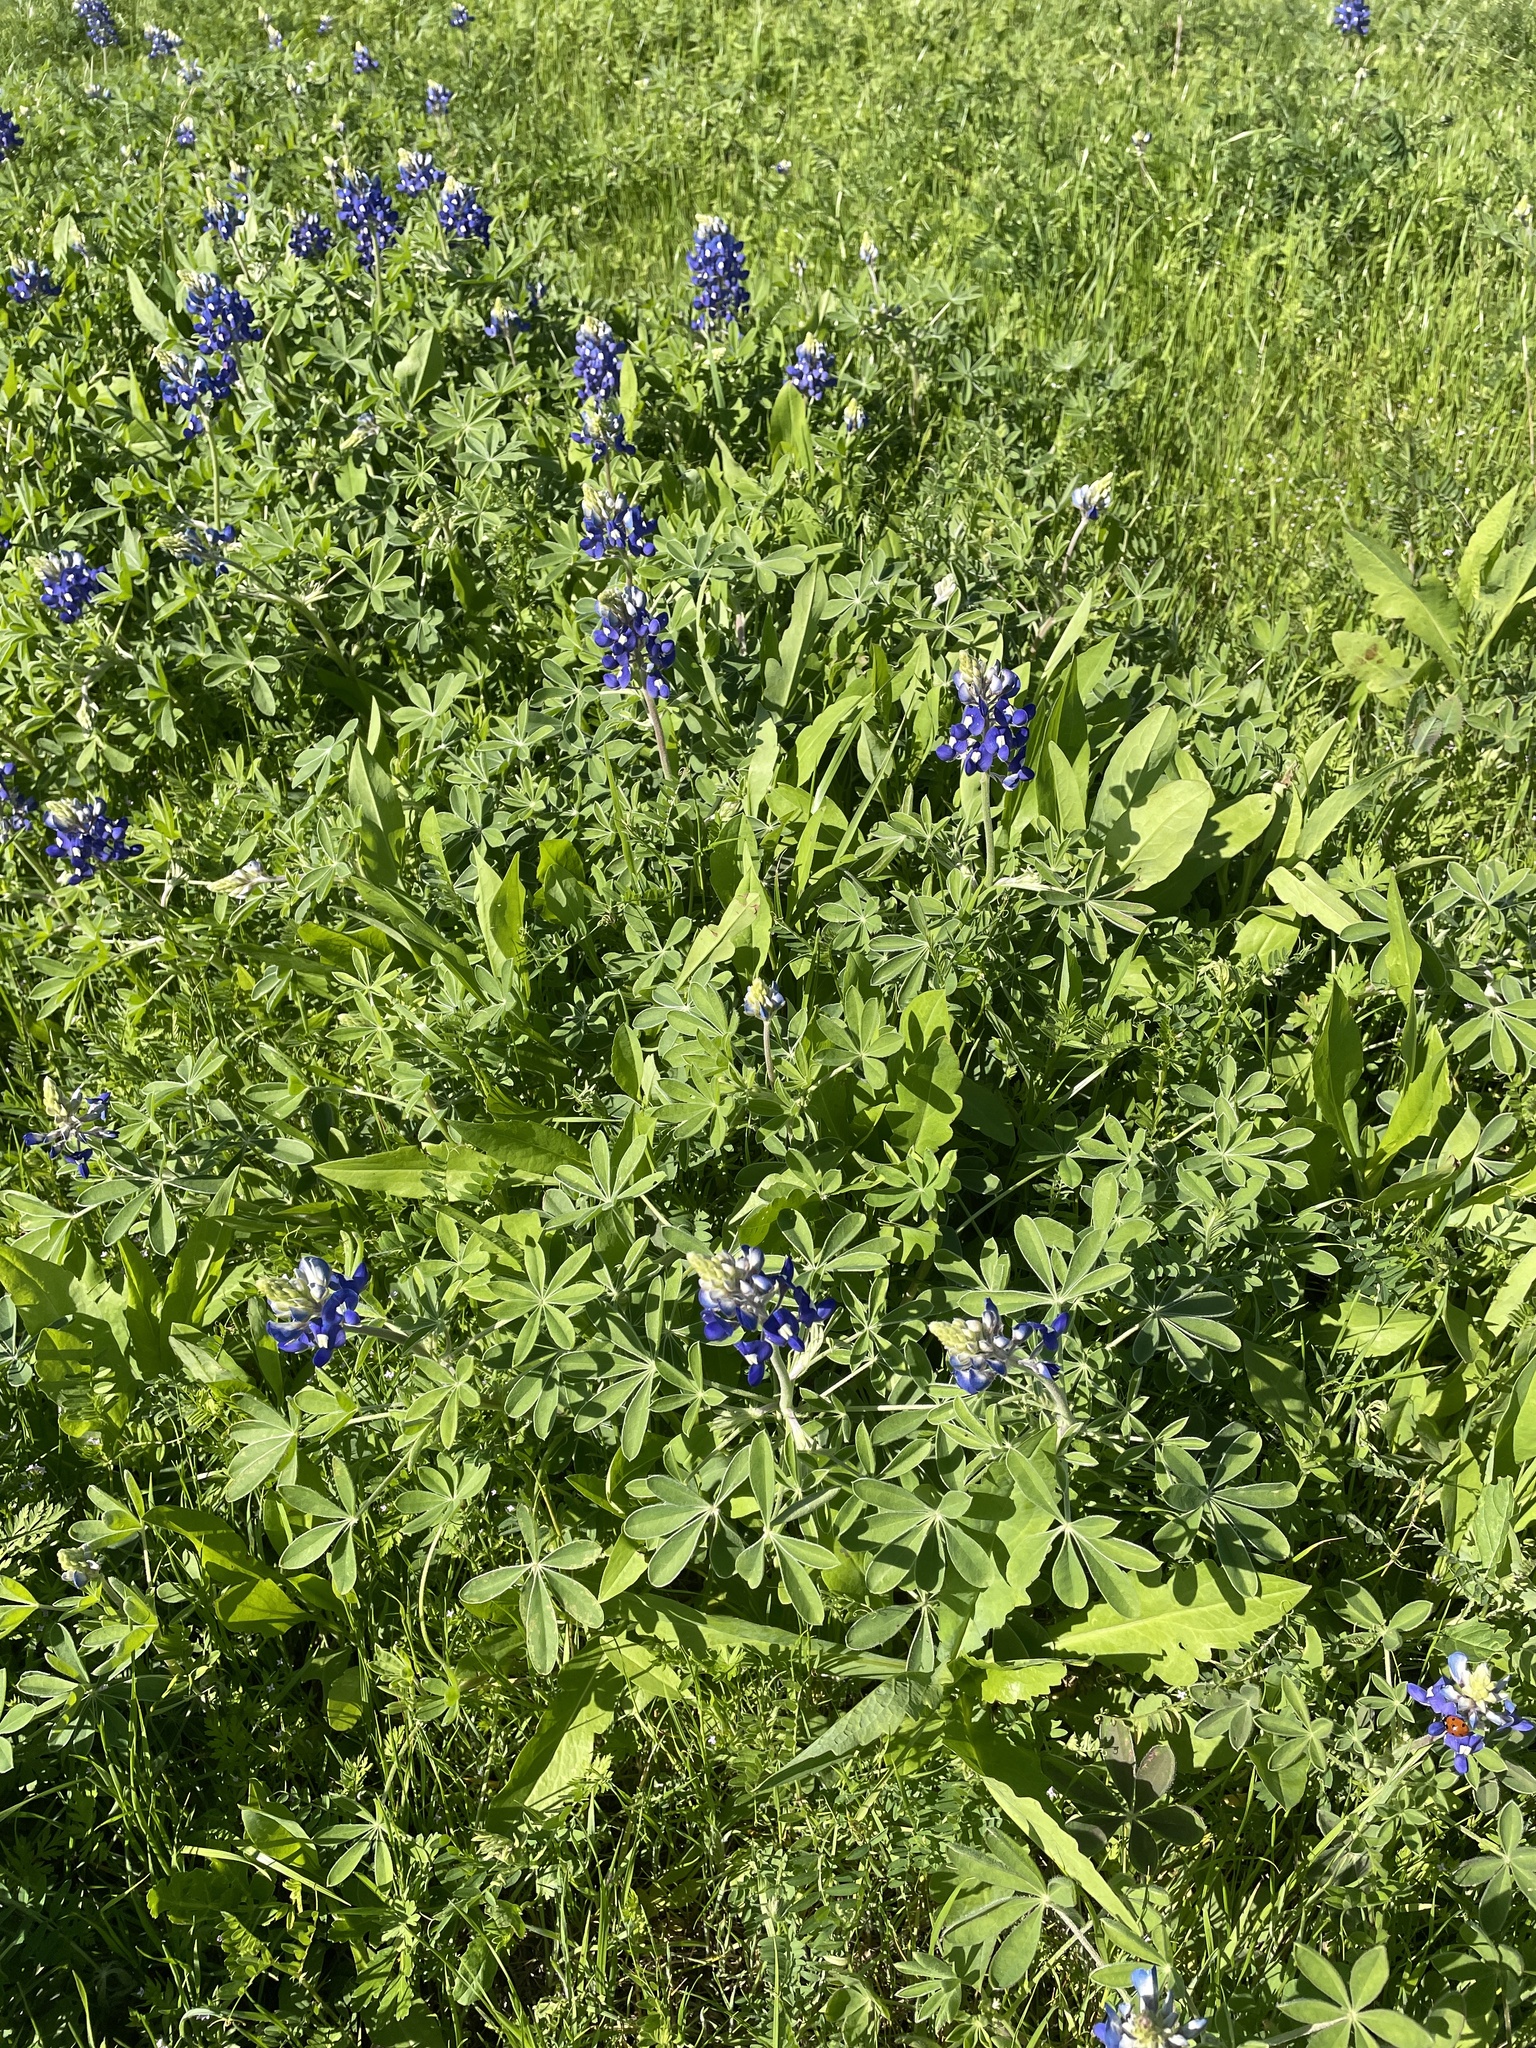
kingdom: Plantae
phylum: Tracheophyta
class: Magnoliopsida
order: Fabales
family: Fabaceae
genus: Lupinus
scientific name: Lupinus texensis
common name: Texas bluebonnet
